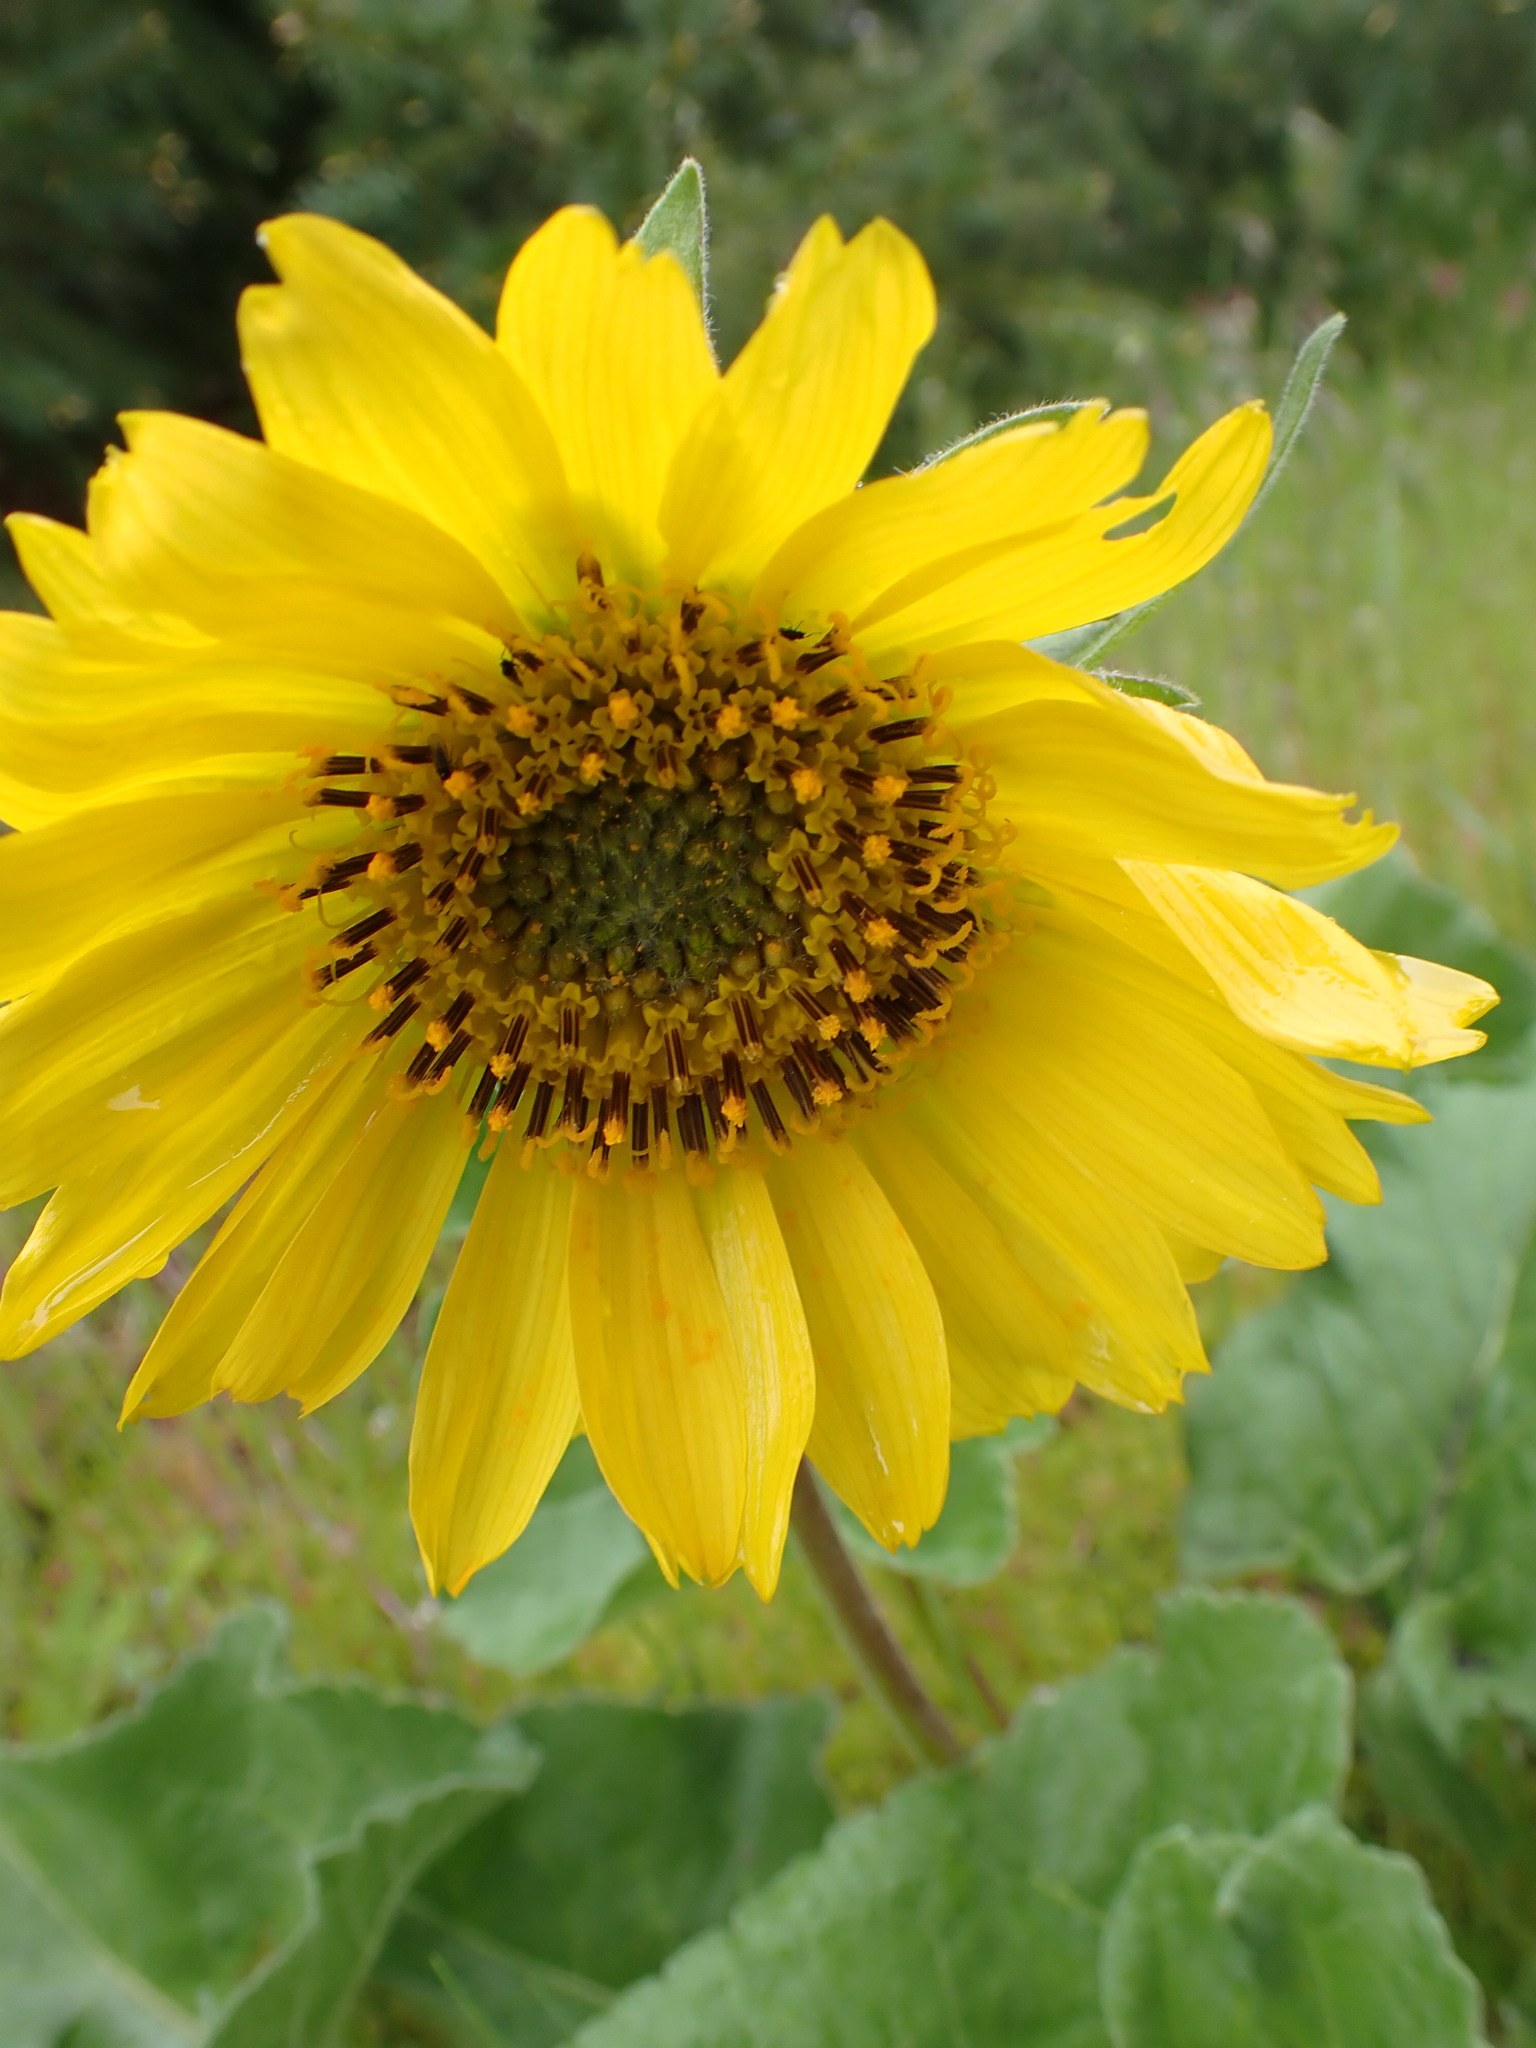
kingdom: Plantae
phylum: Tracheophyta
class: Magnoliopsida
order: Asterales
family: Asteraceae
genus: Balsamorhiza
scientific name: Balsamorhiza deltoidea
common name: Deltoid balsamroot
